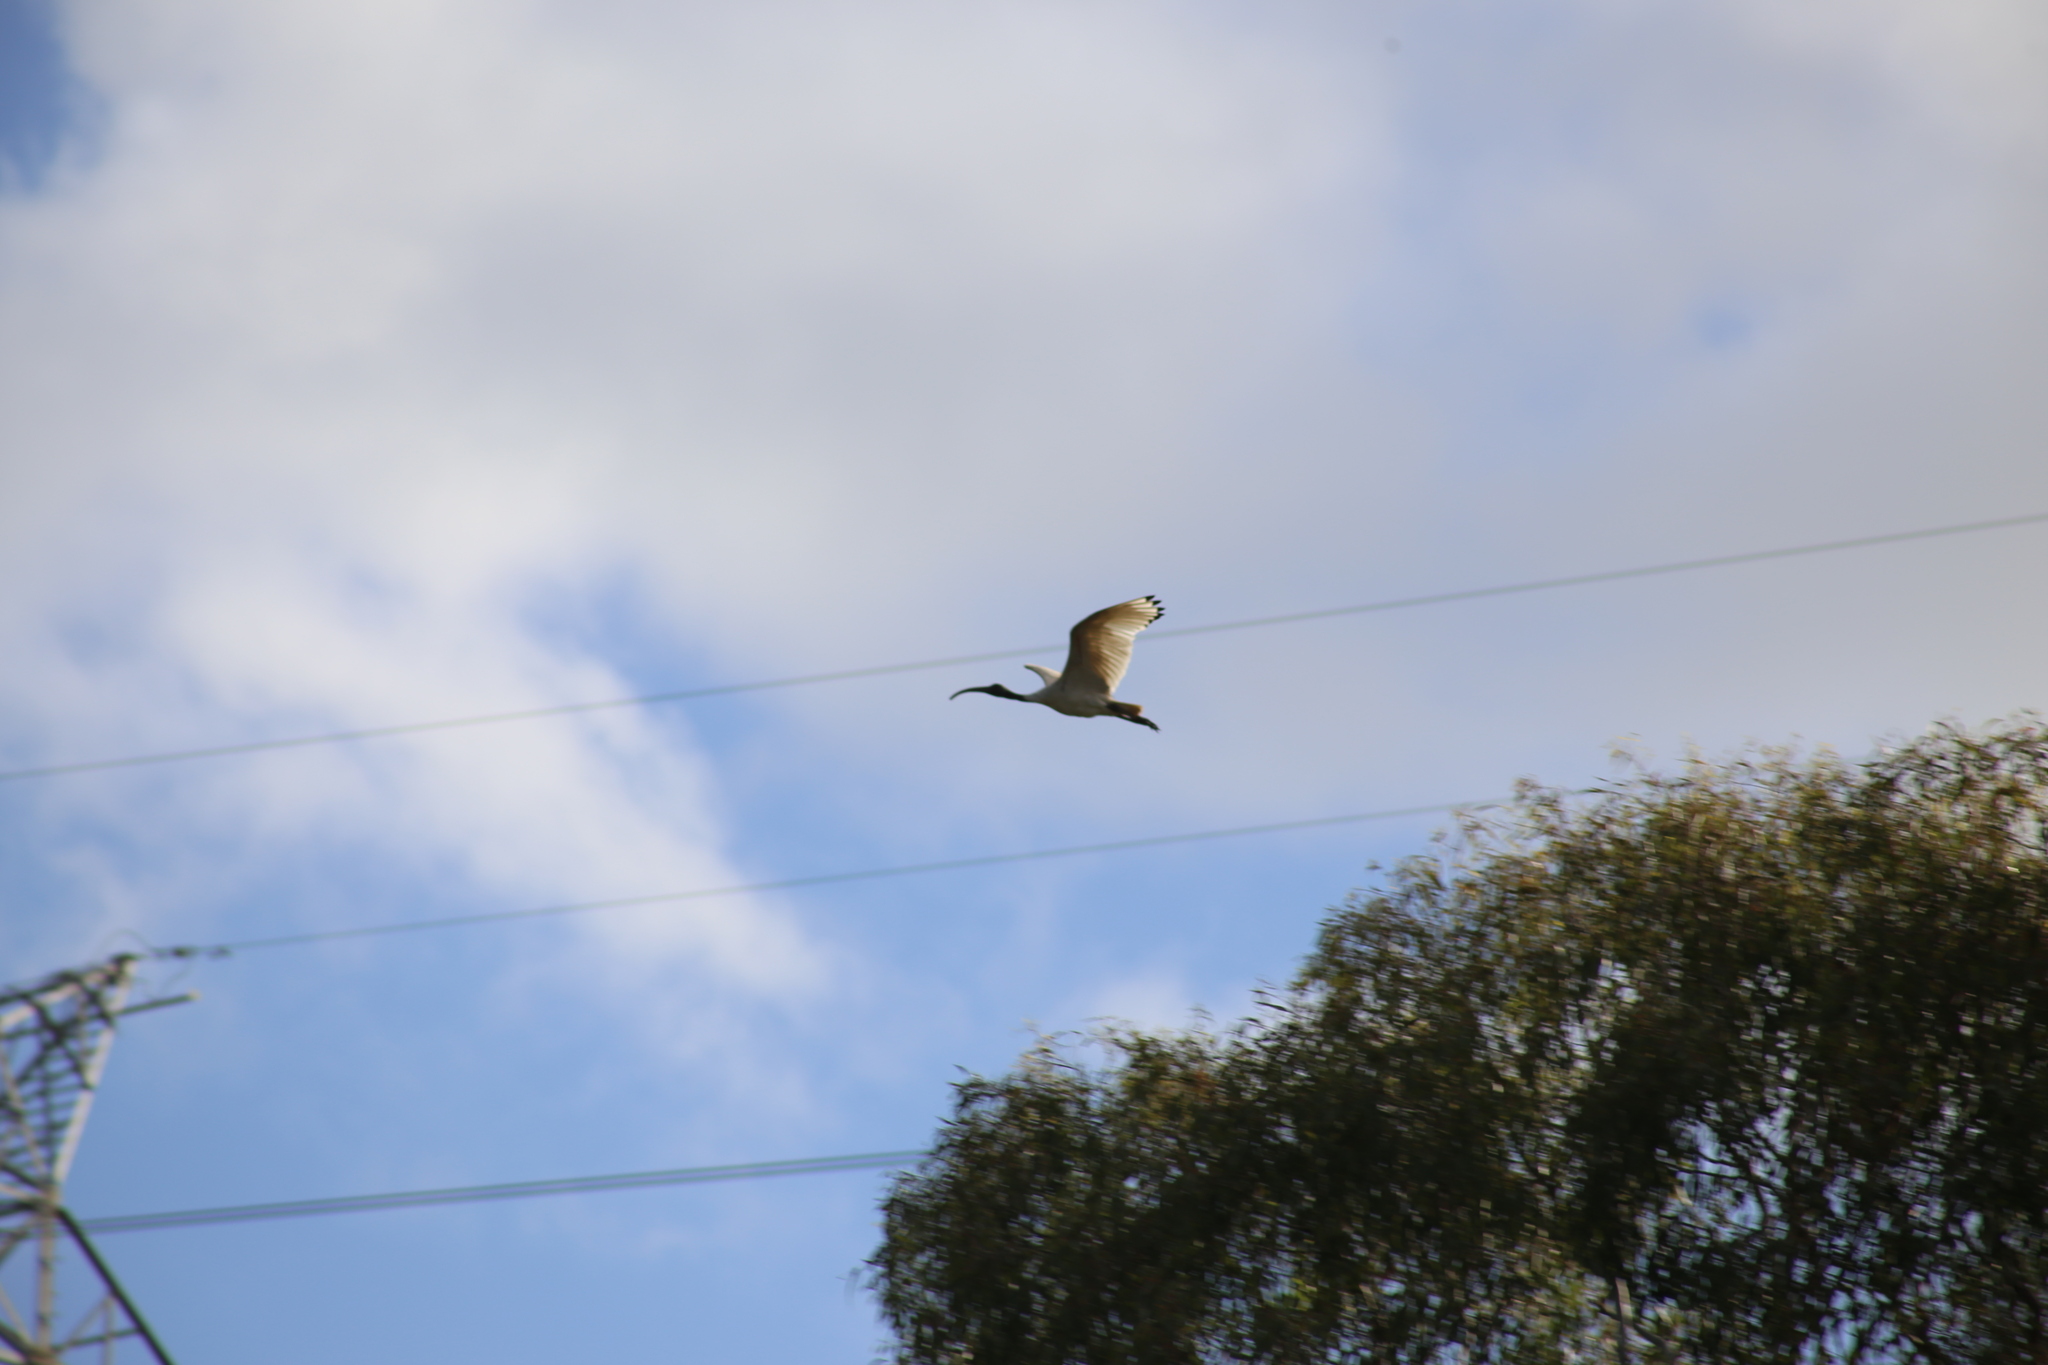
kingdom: Animalia
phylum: Chordata
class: Aves
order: Pelecaniformes
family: Threskiornithidae
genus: Threskiornis
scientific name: Threskiornis molucca
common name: Australian white ibis
